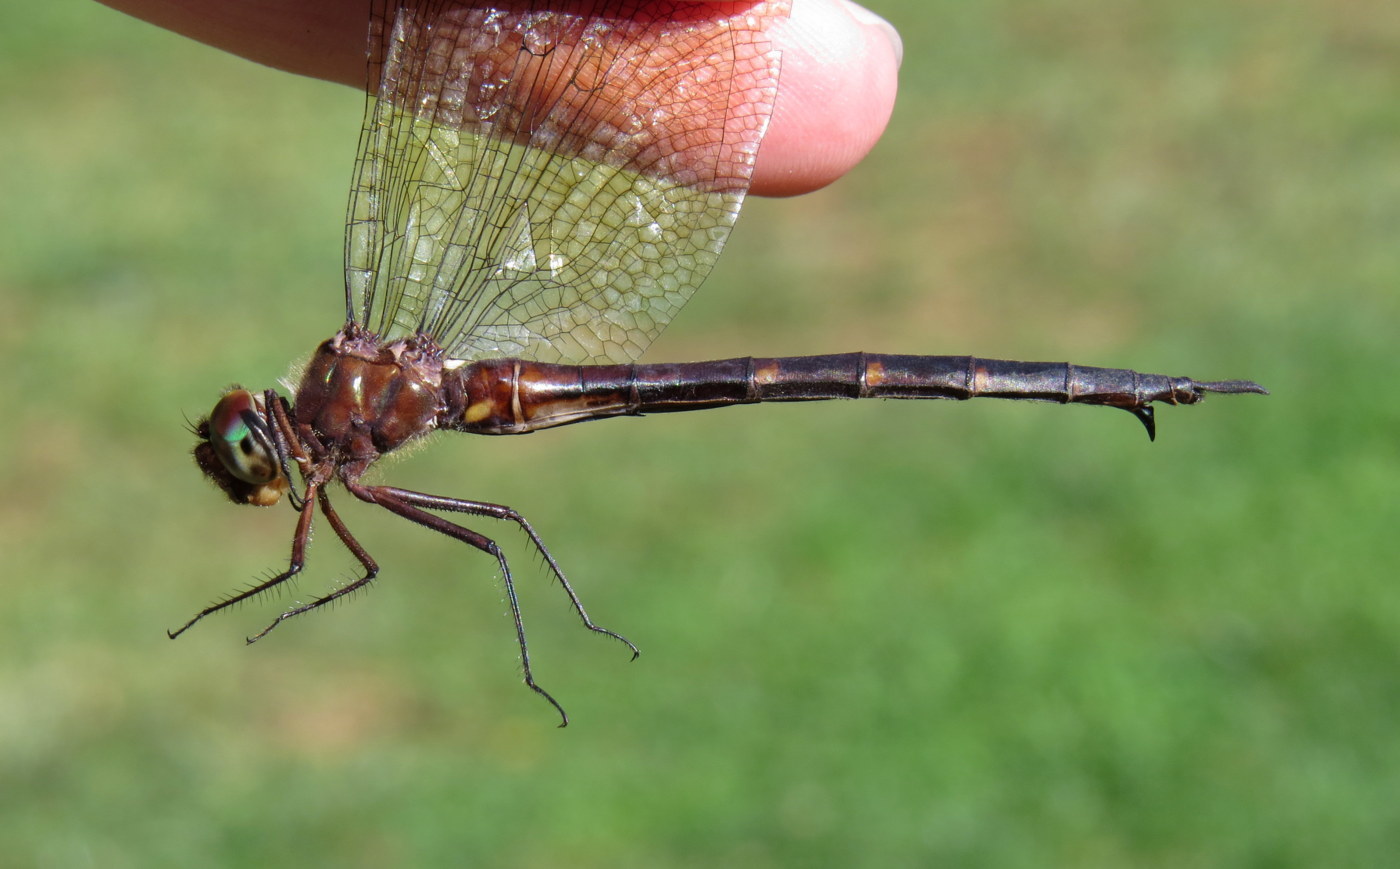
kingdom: Animalia
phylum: Arthropoda
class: Insecta
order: Odonata
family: Corduliidae
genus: Somatochlora
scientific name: Somatochlora linearis
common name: Mocha emerald
